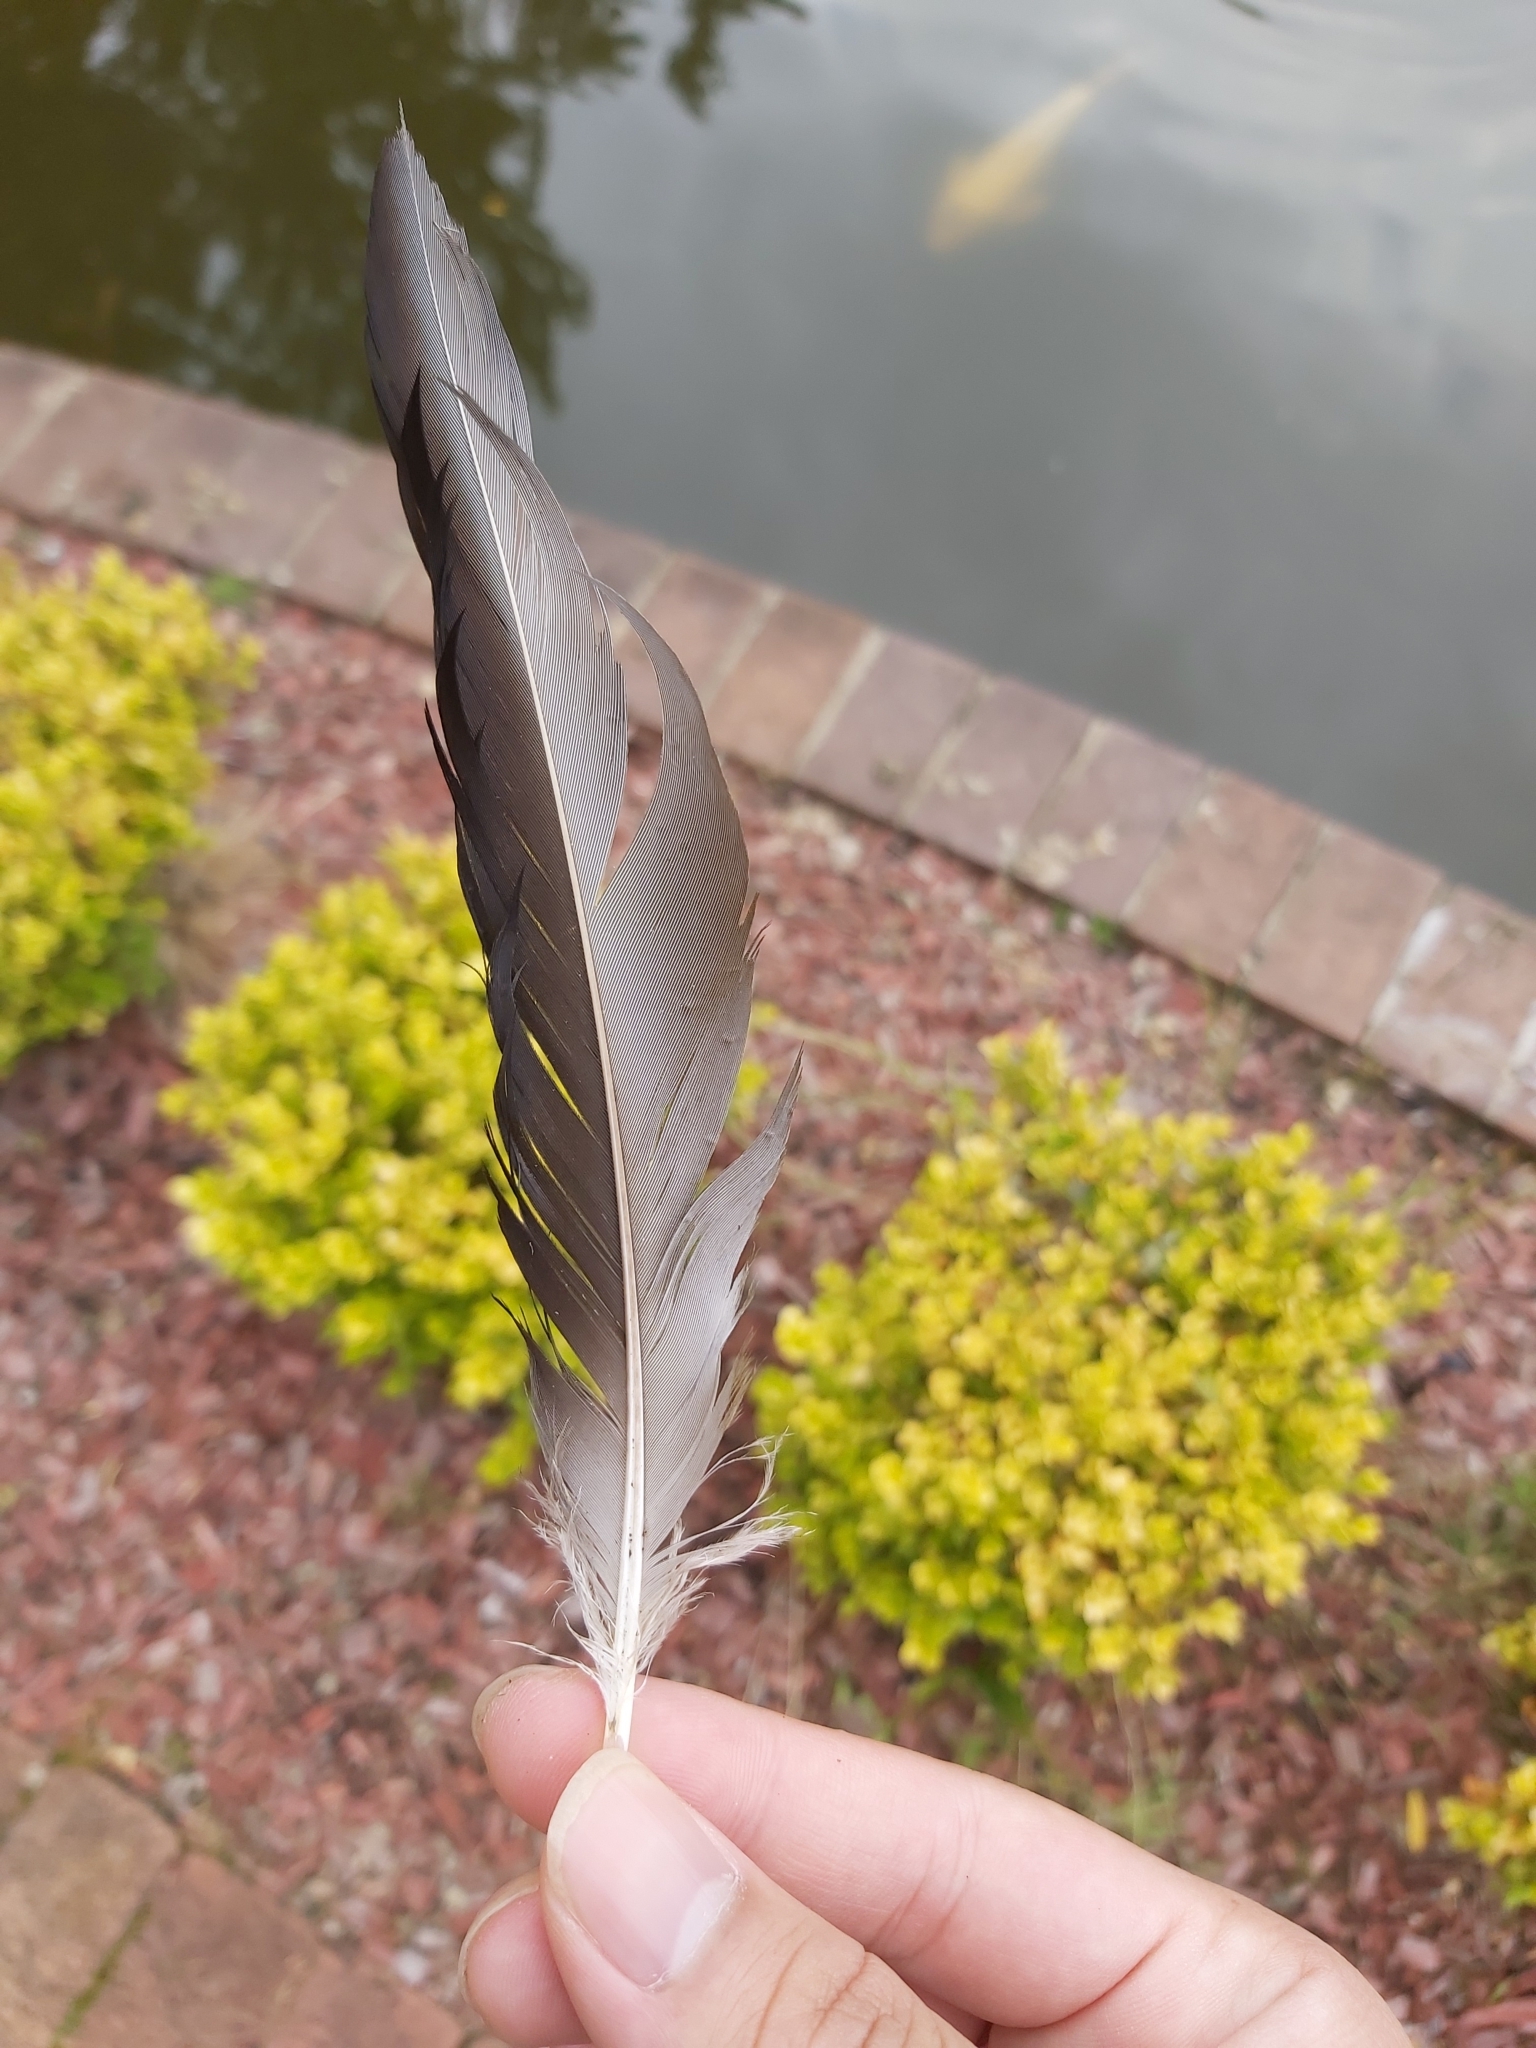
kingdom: Animalia
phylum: Chordata
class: Aves
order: Anseriformes
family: Anatidae
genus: Chenonetta
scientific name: Chenonetta jubata
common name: Maned duck
